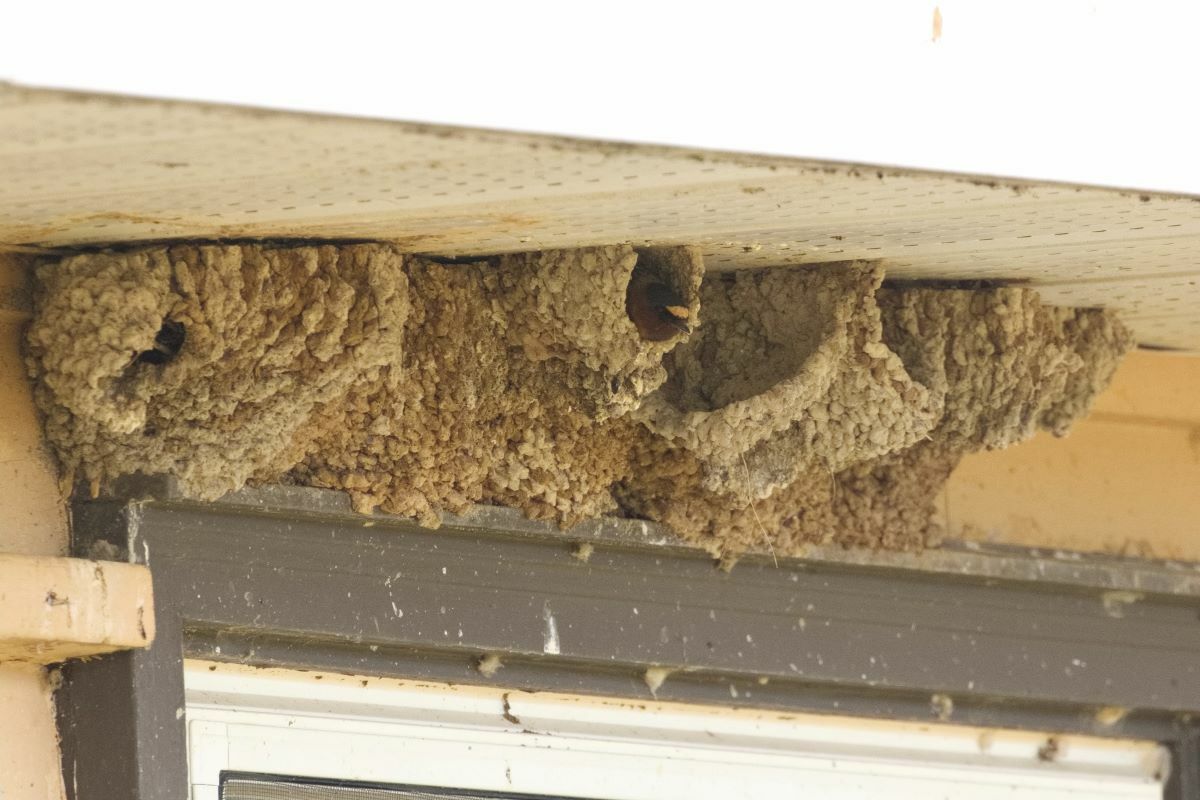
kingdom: Animalia
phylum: Chordata
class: Aves
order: Passeriformes
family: Hirundinidae
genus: Petrochelidon
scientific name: Petrochelidon pyrrhonota
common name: American cliff swallow
